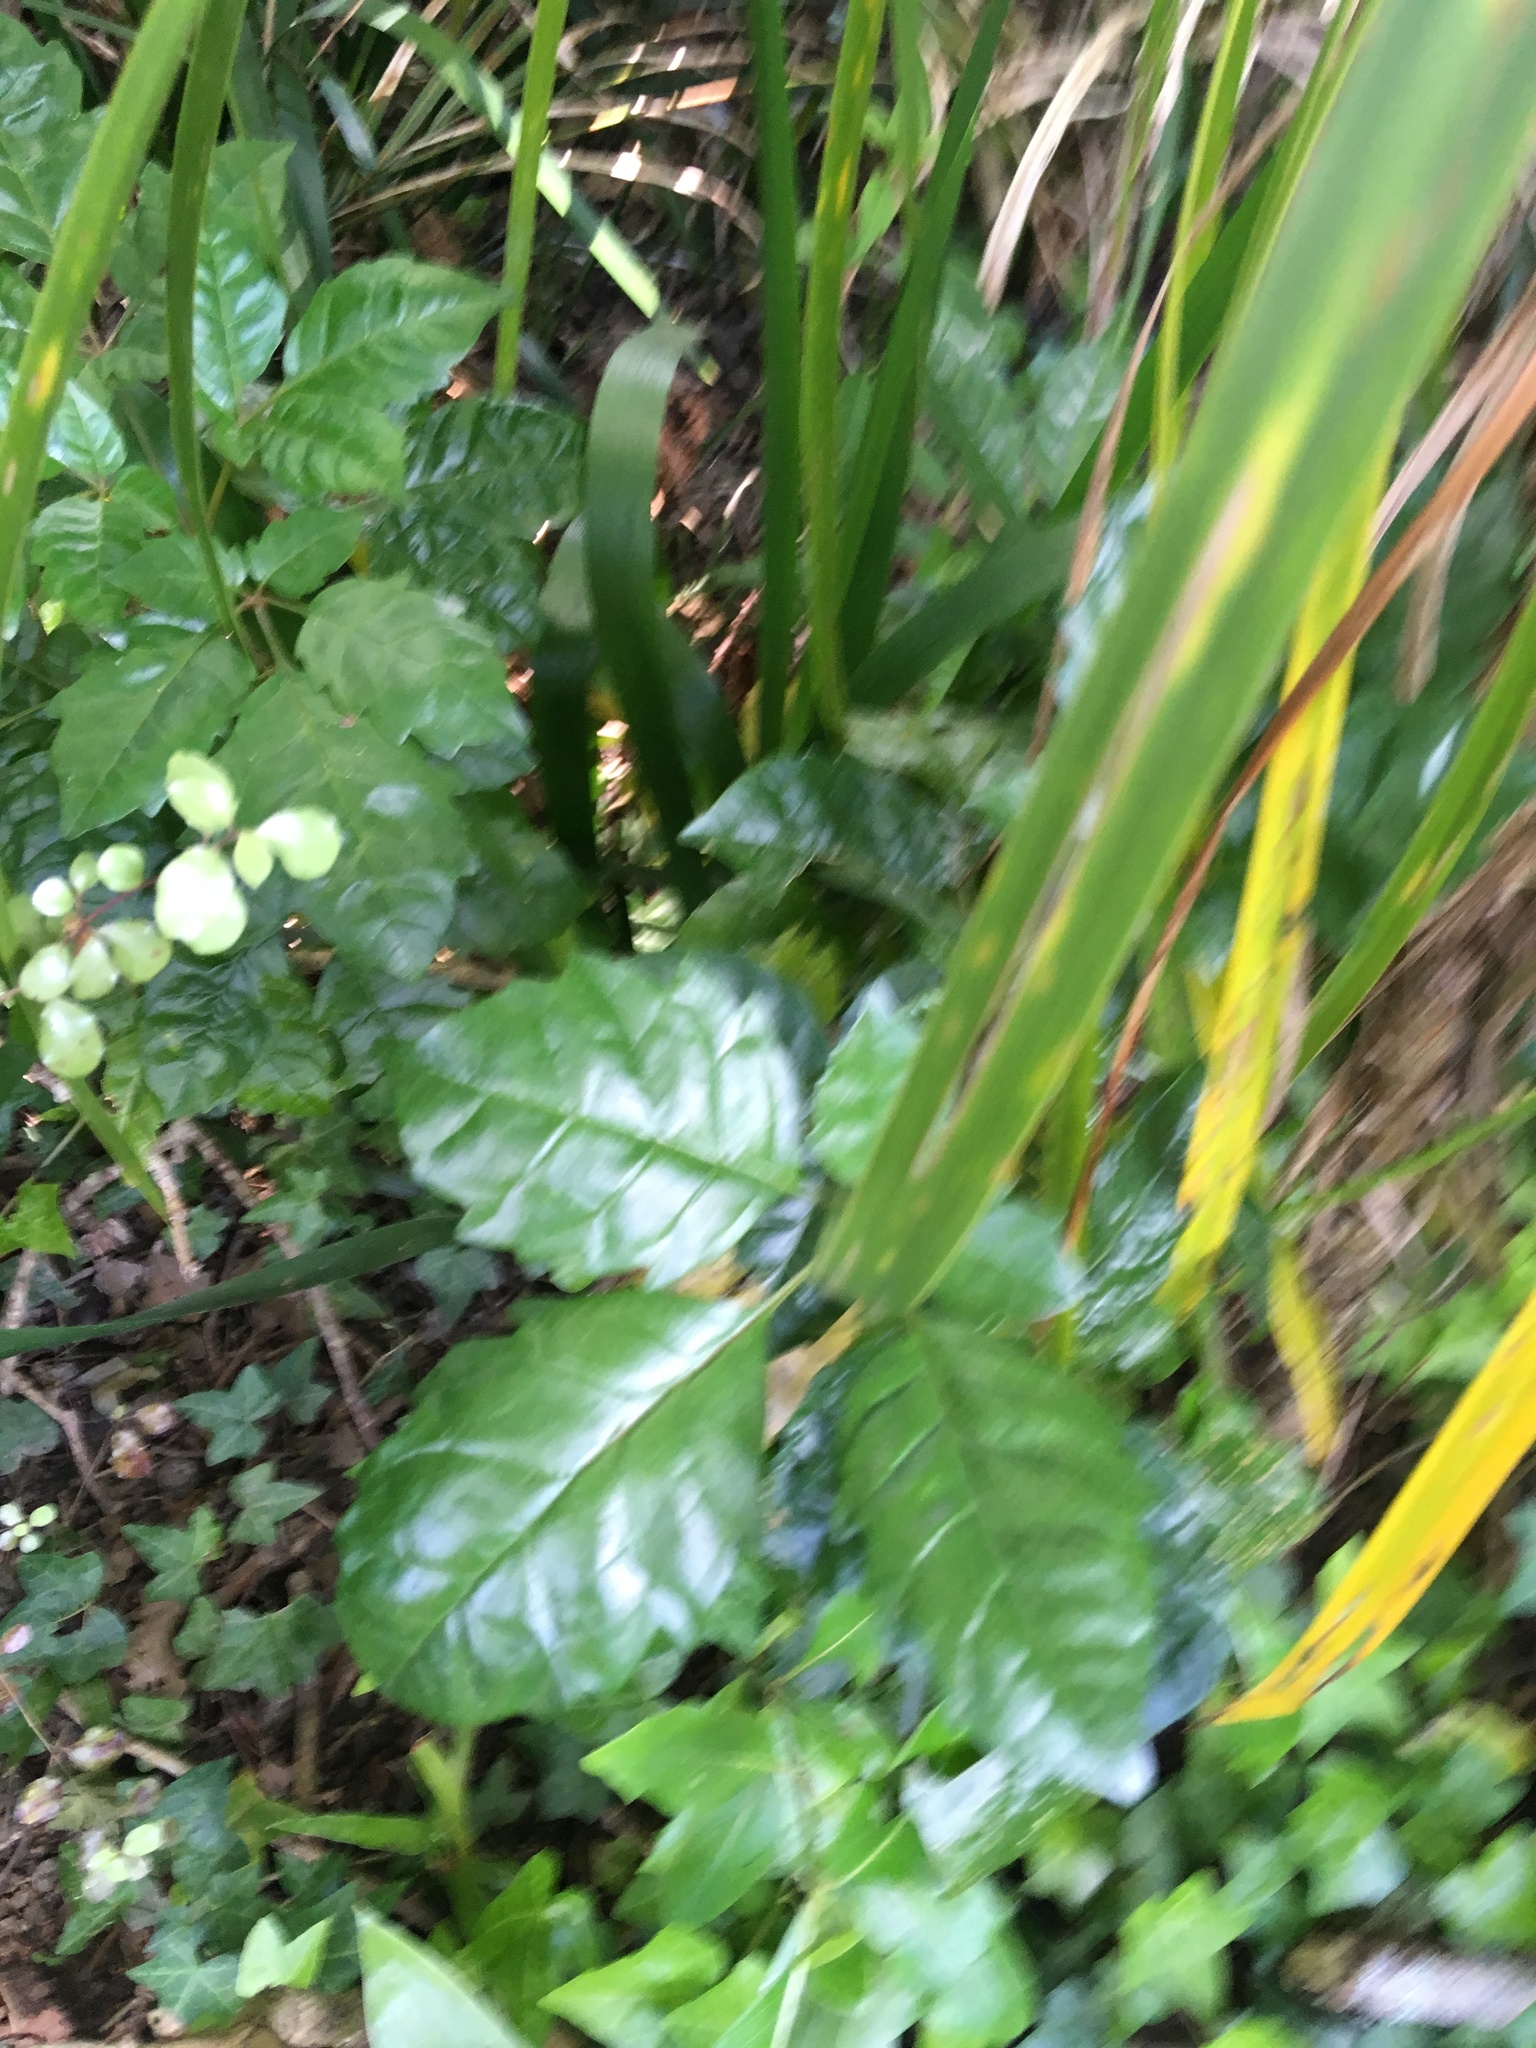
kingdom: Plantae
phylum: Tracheophyta
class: Magnoliopsida
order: Lamiales
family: Lamiaceae
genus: Vitex
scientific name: Vitex lucens
